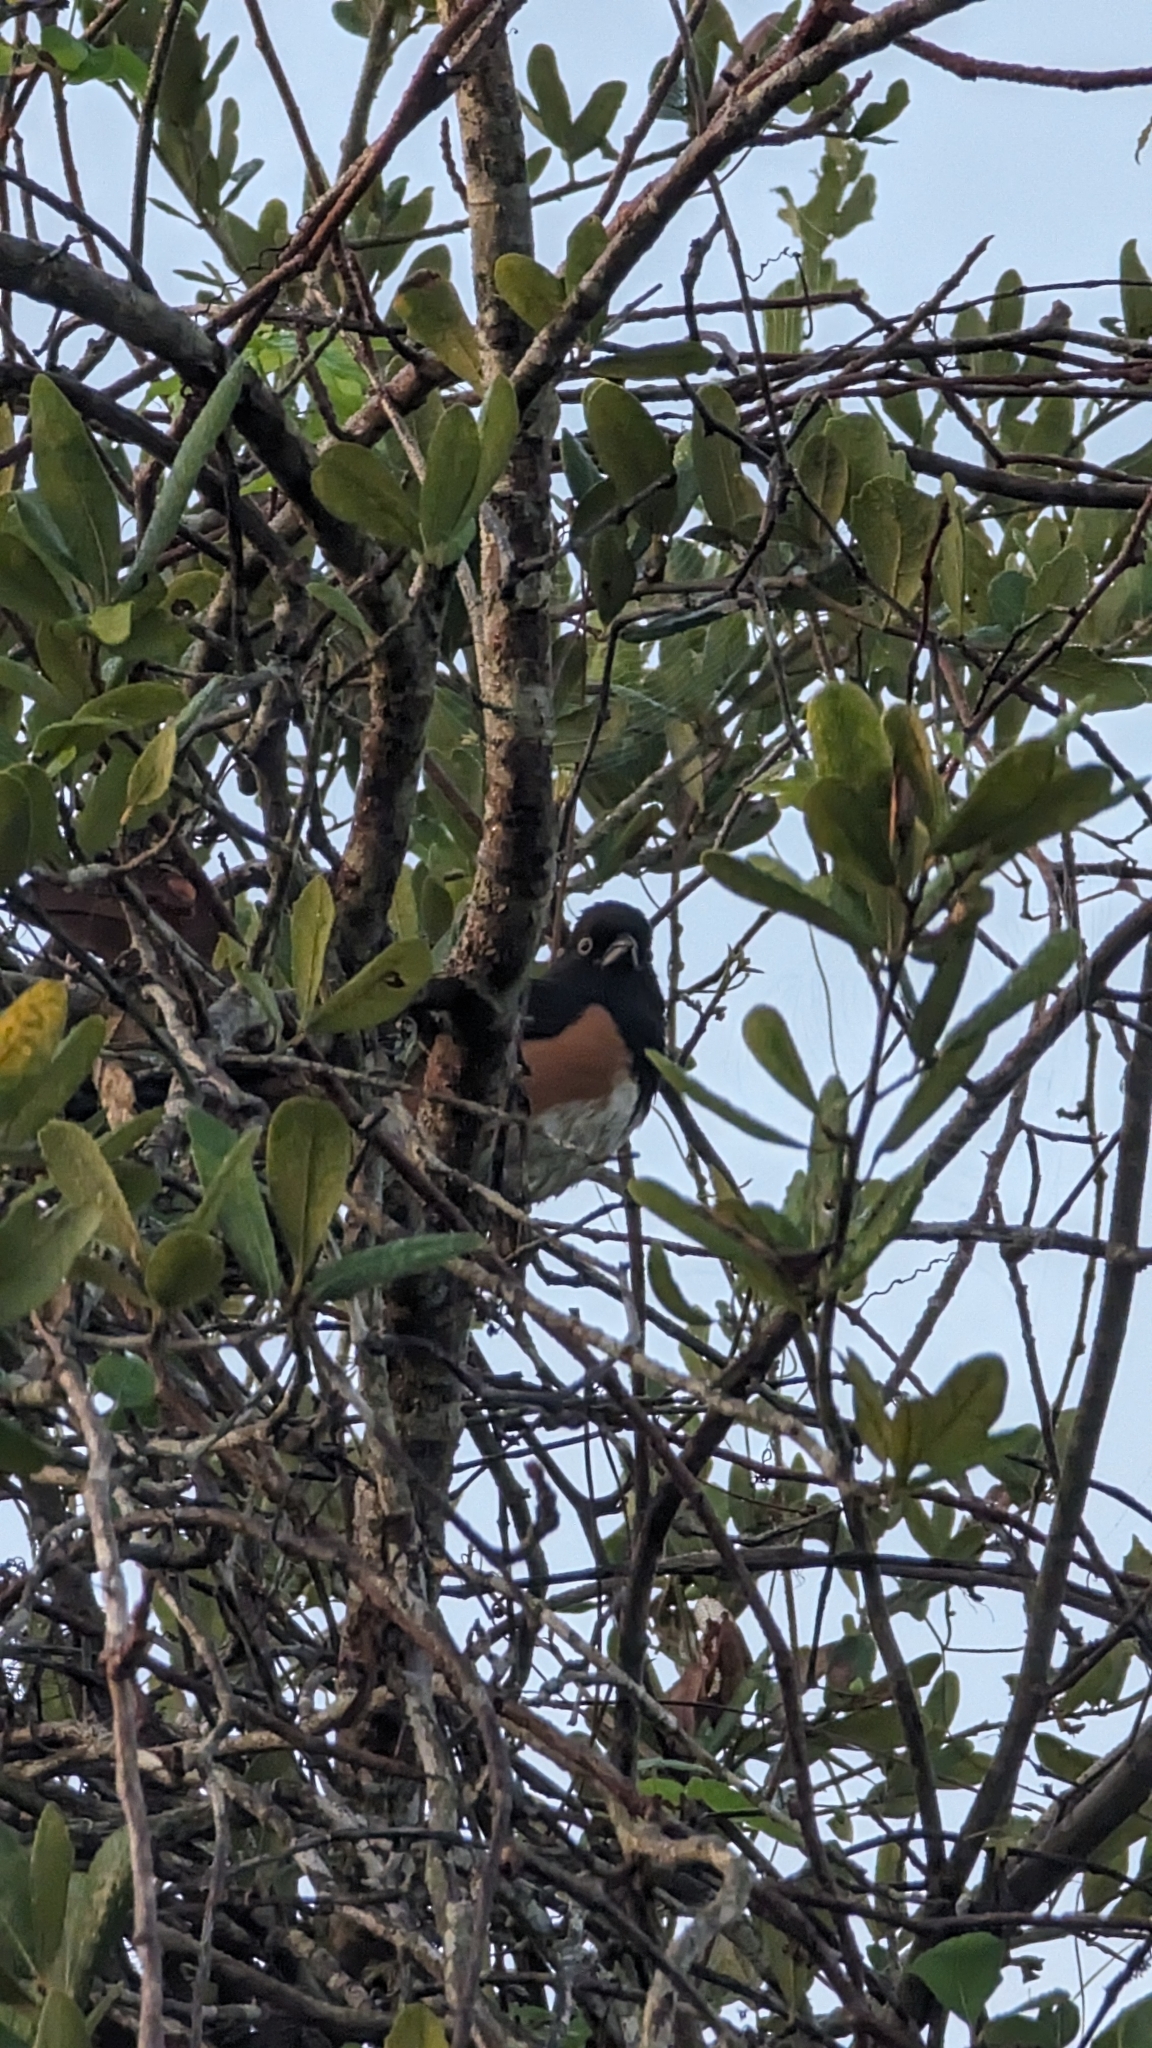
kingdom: Animalia
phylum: Chordata
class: Aves
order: Passeriformes
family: Passerellidae
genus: Pipilo
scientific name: Pipilo erythrophthalmus
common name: Eastern towhee
